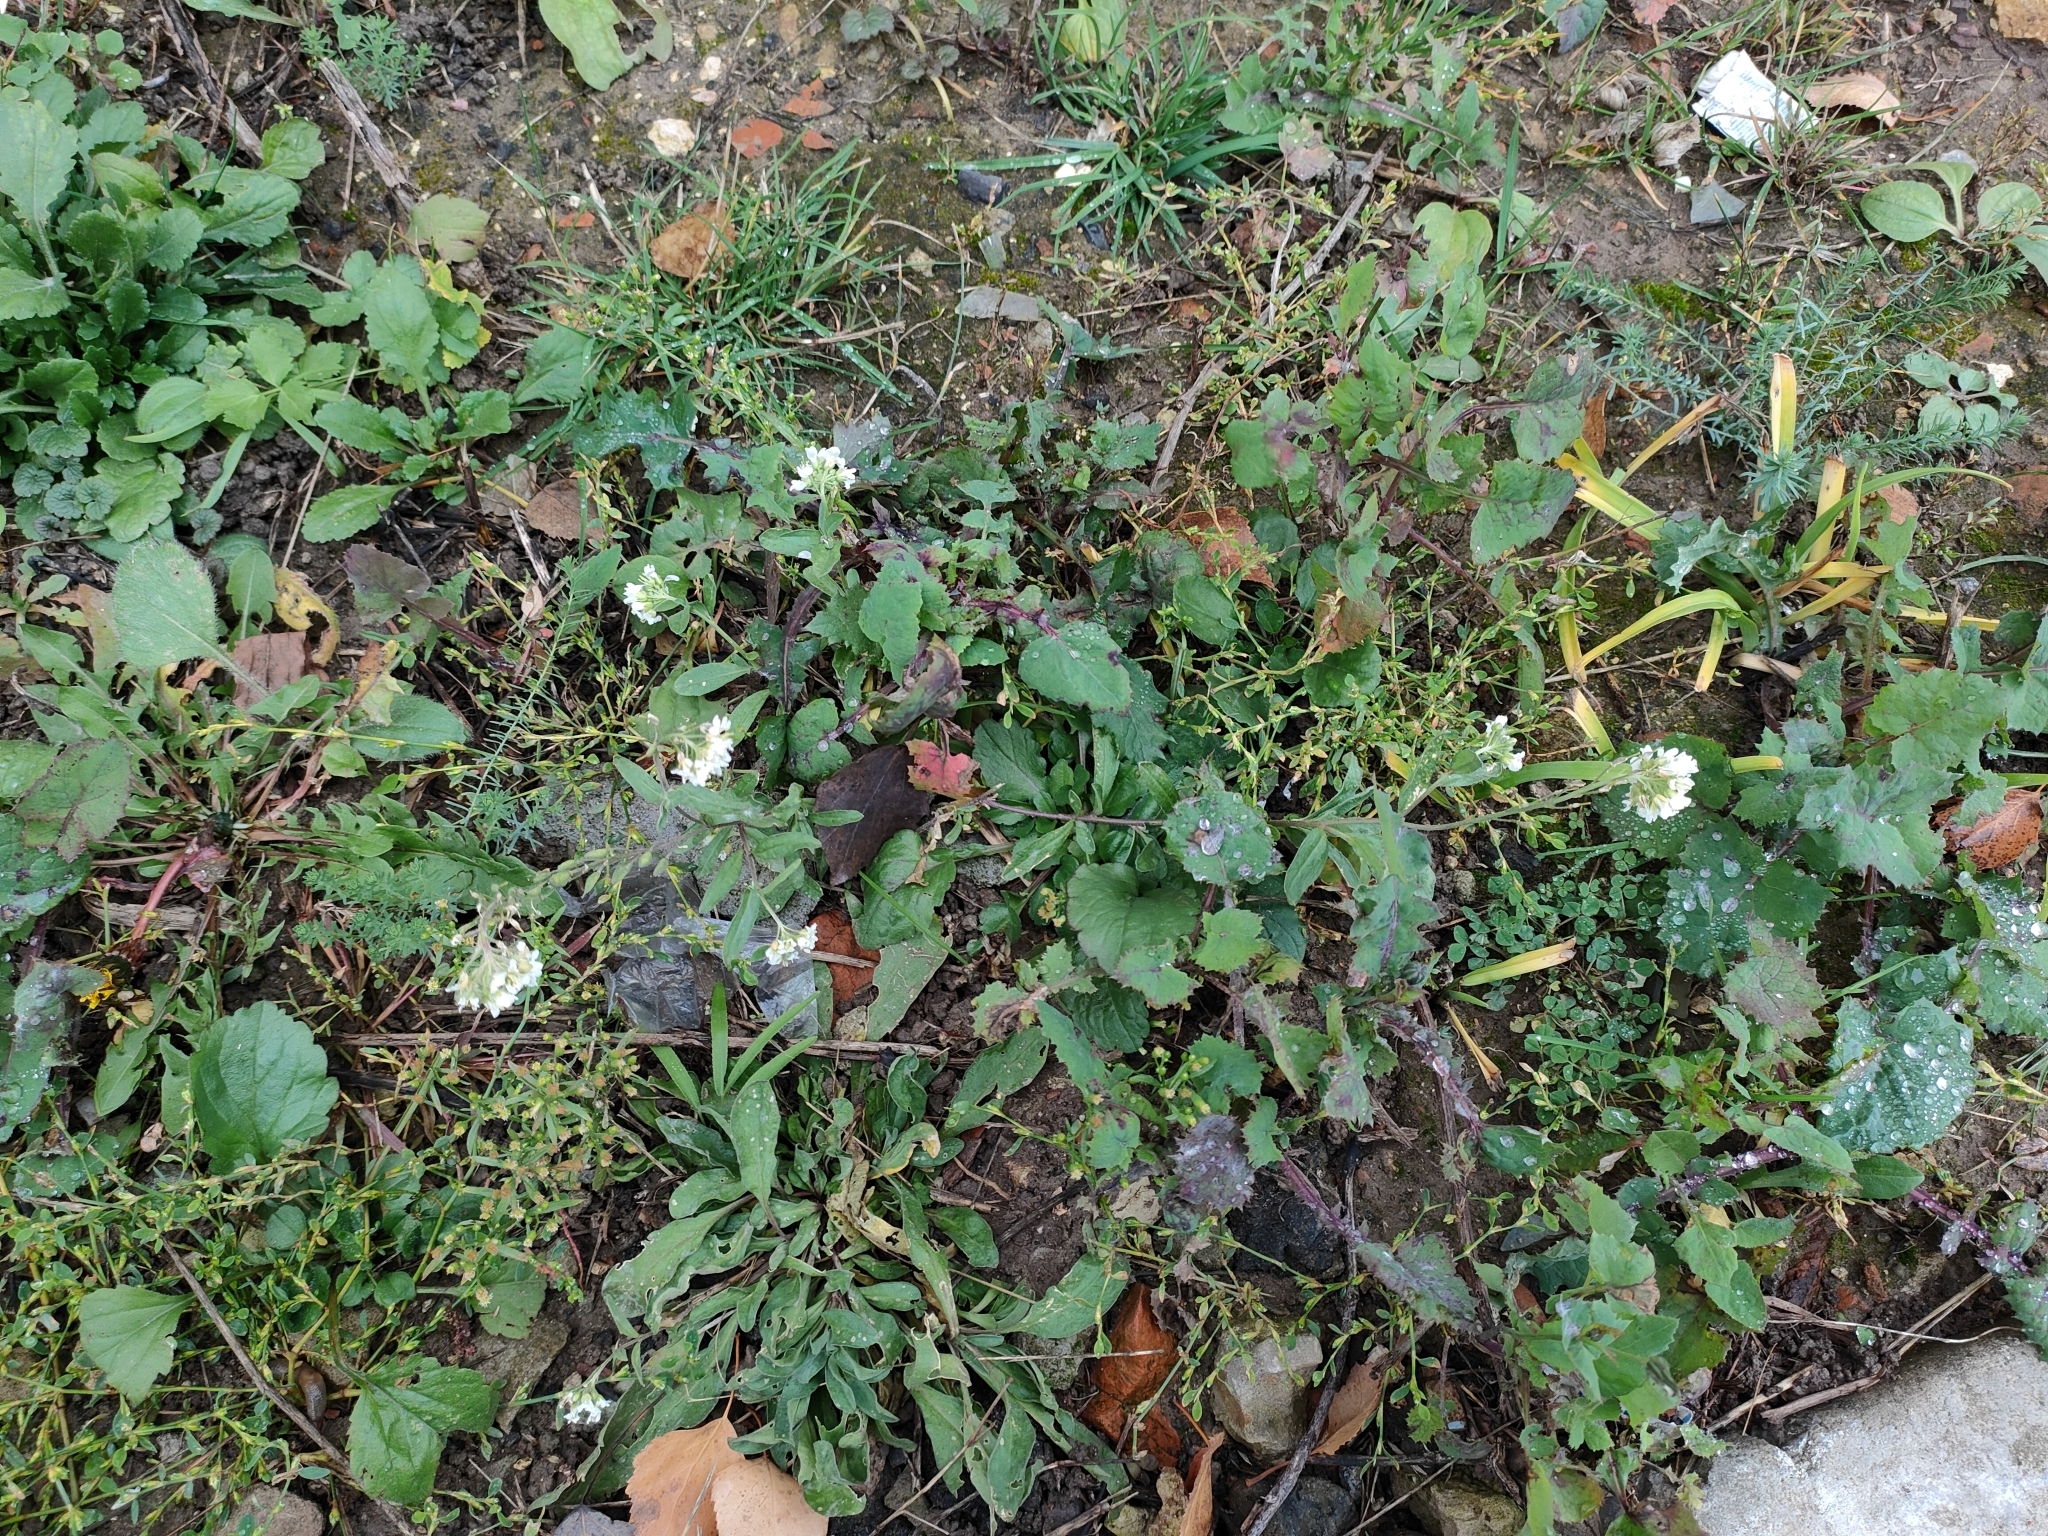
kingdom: Plantae
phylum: Tracheophyta
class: Magnoliopsida
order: Brassicales
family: Brassicaceae
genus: Berteroa
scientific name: Berteroa incana
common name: Hoary alison
